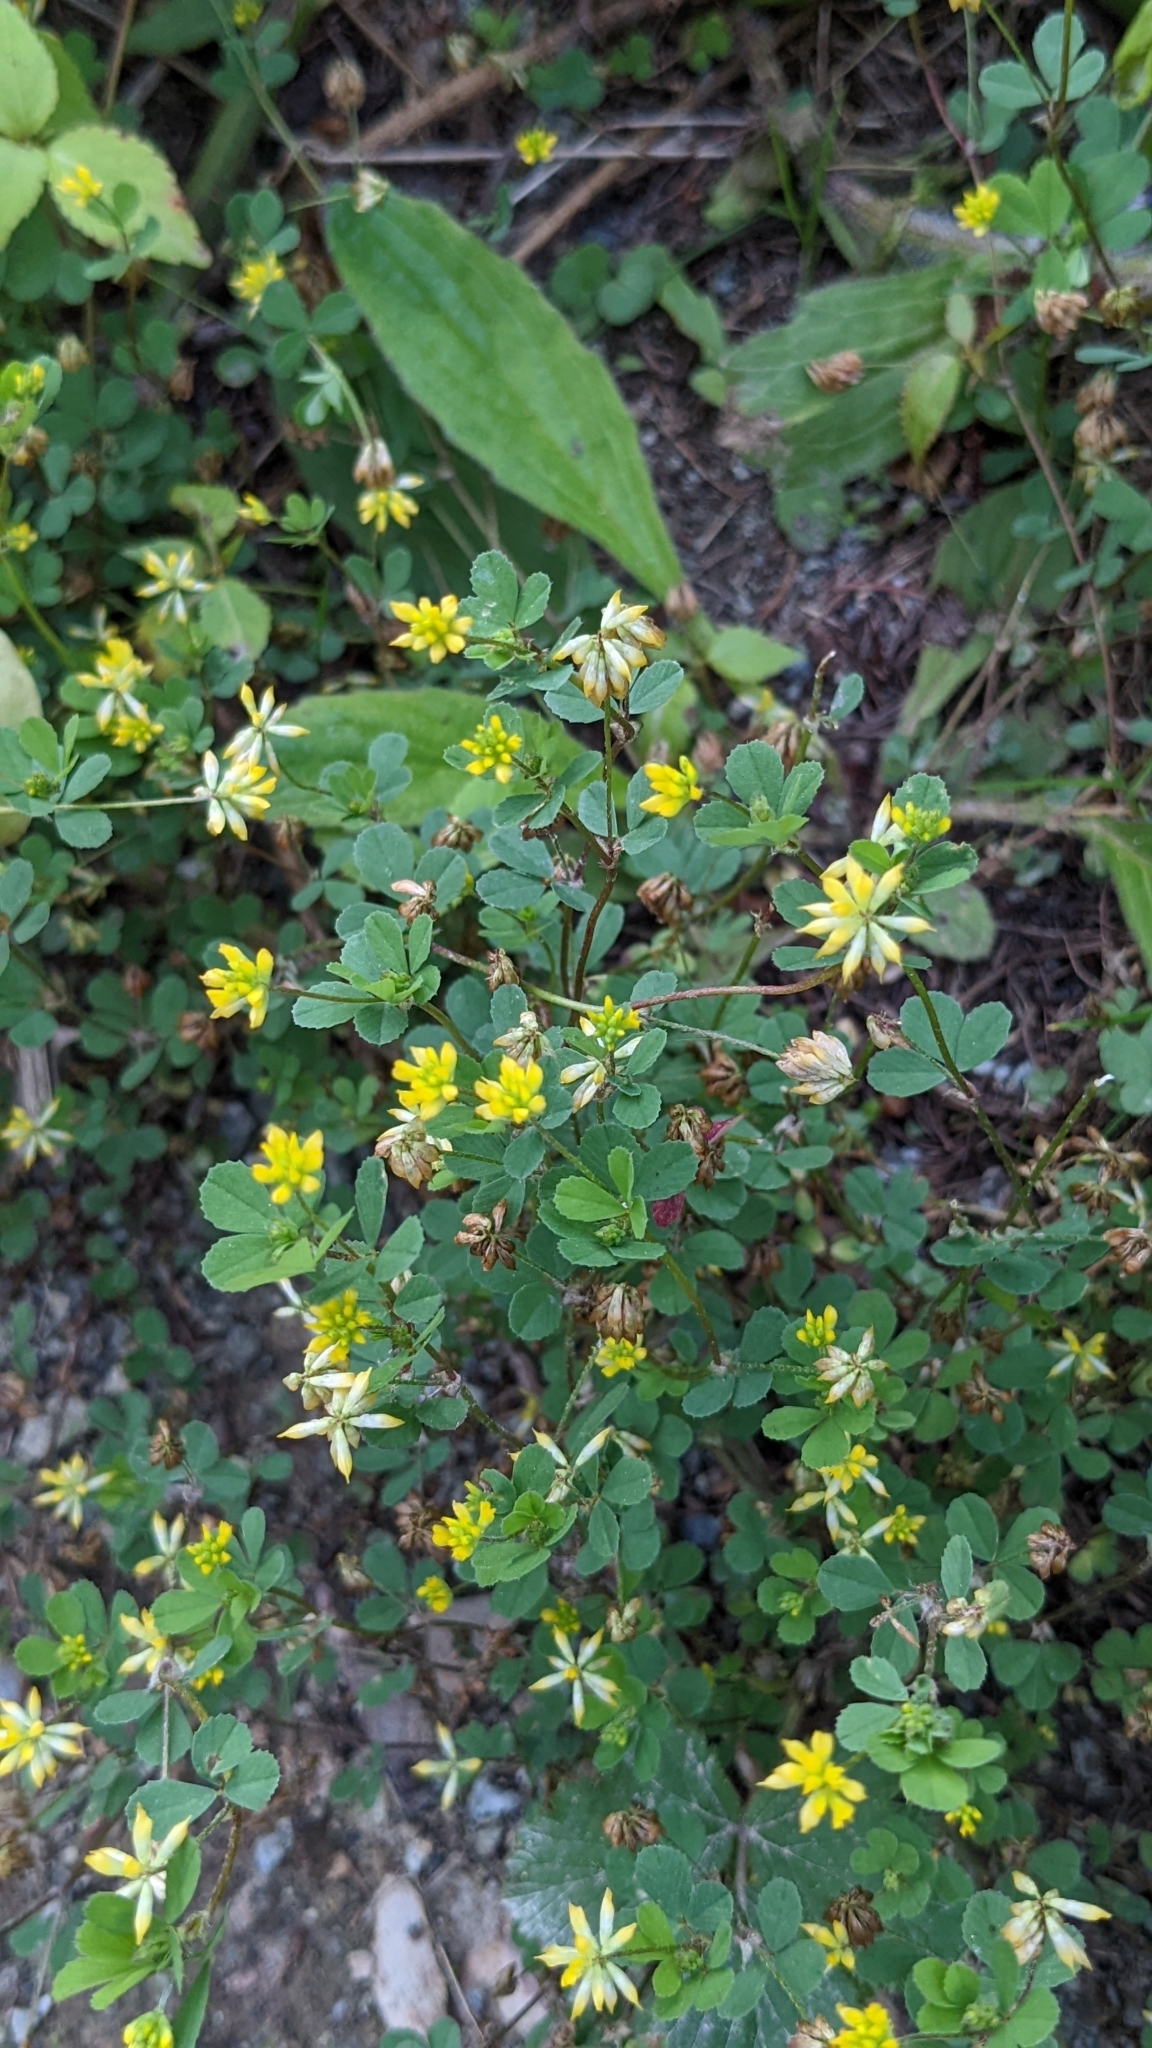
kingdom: Plantae
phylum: Tracheophyta
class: Magnoliopsida
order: Fabales
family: Fabaceae
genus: Trifolium
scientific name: Trifolium dubium
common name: Suckling clover
